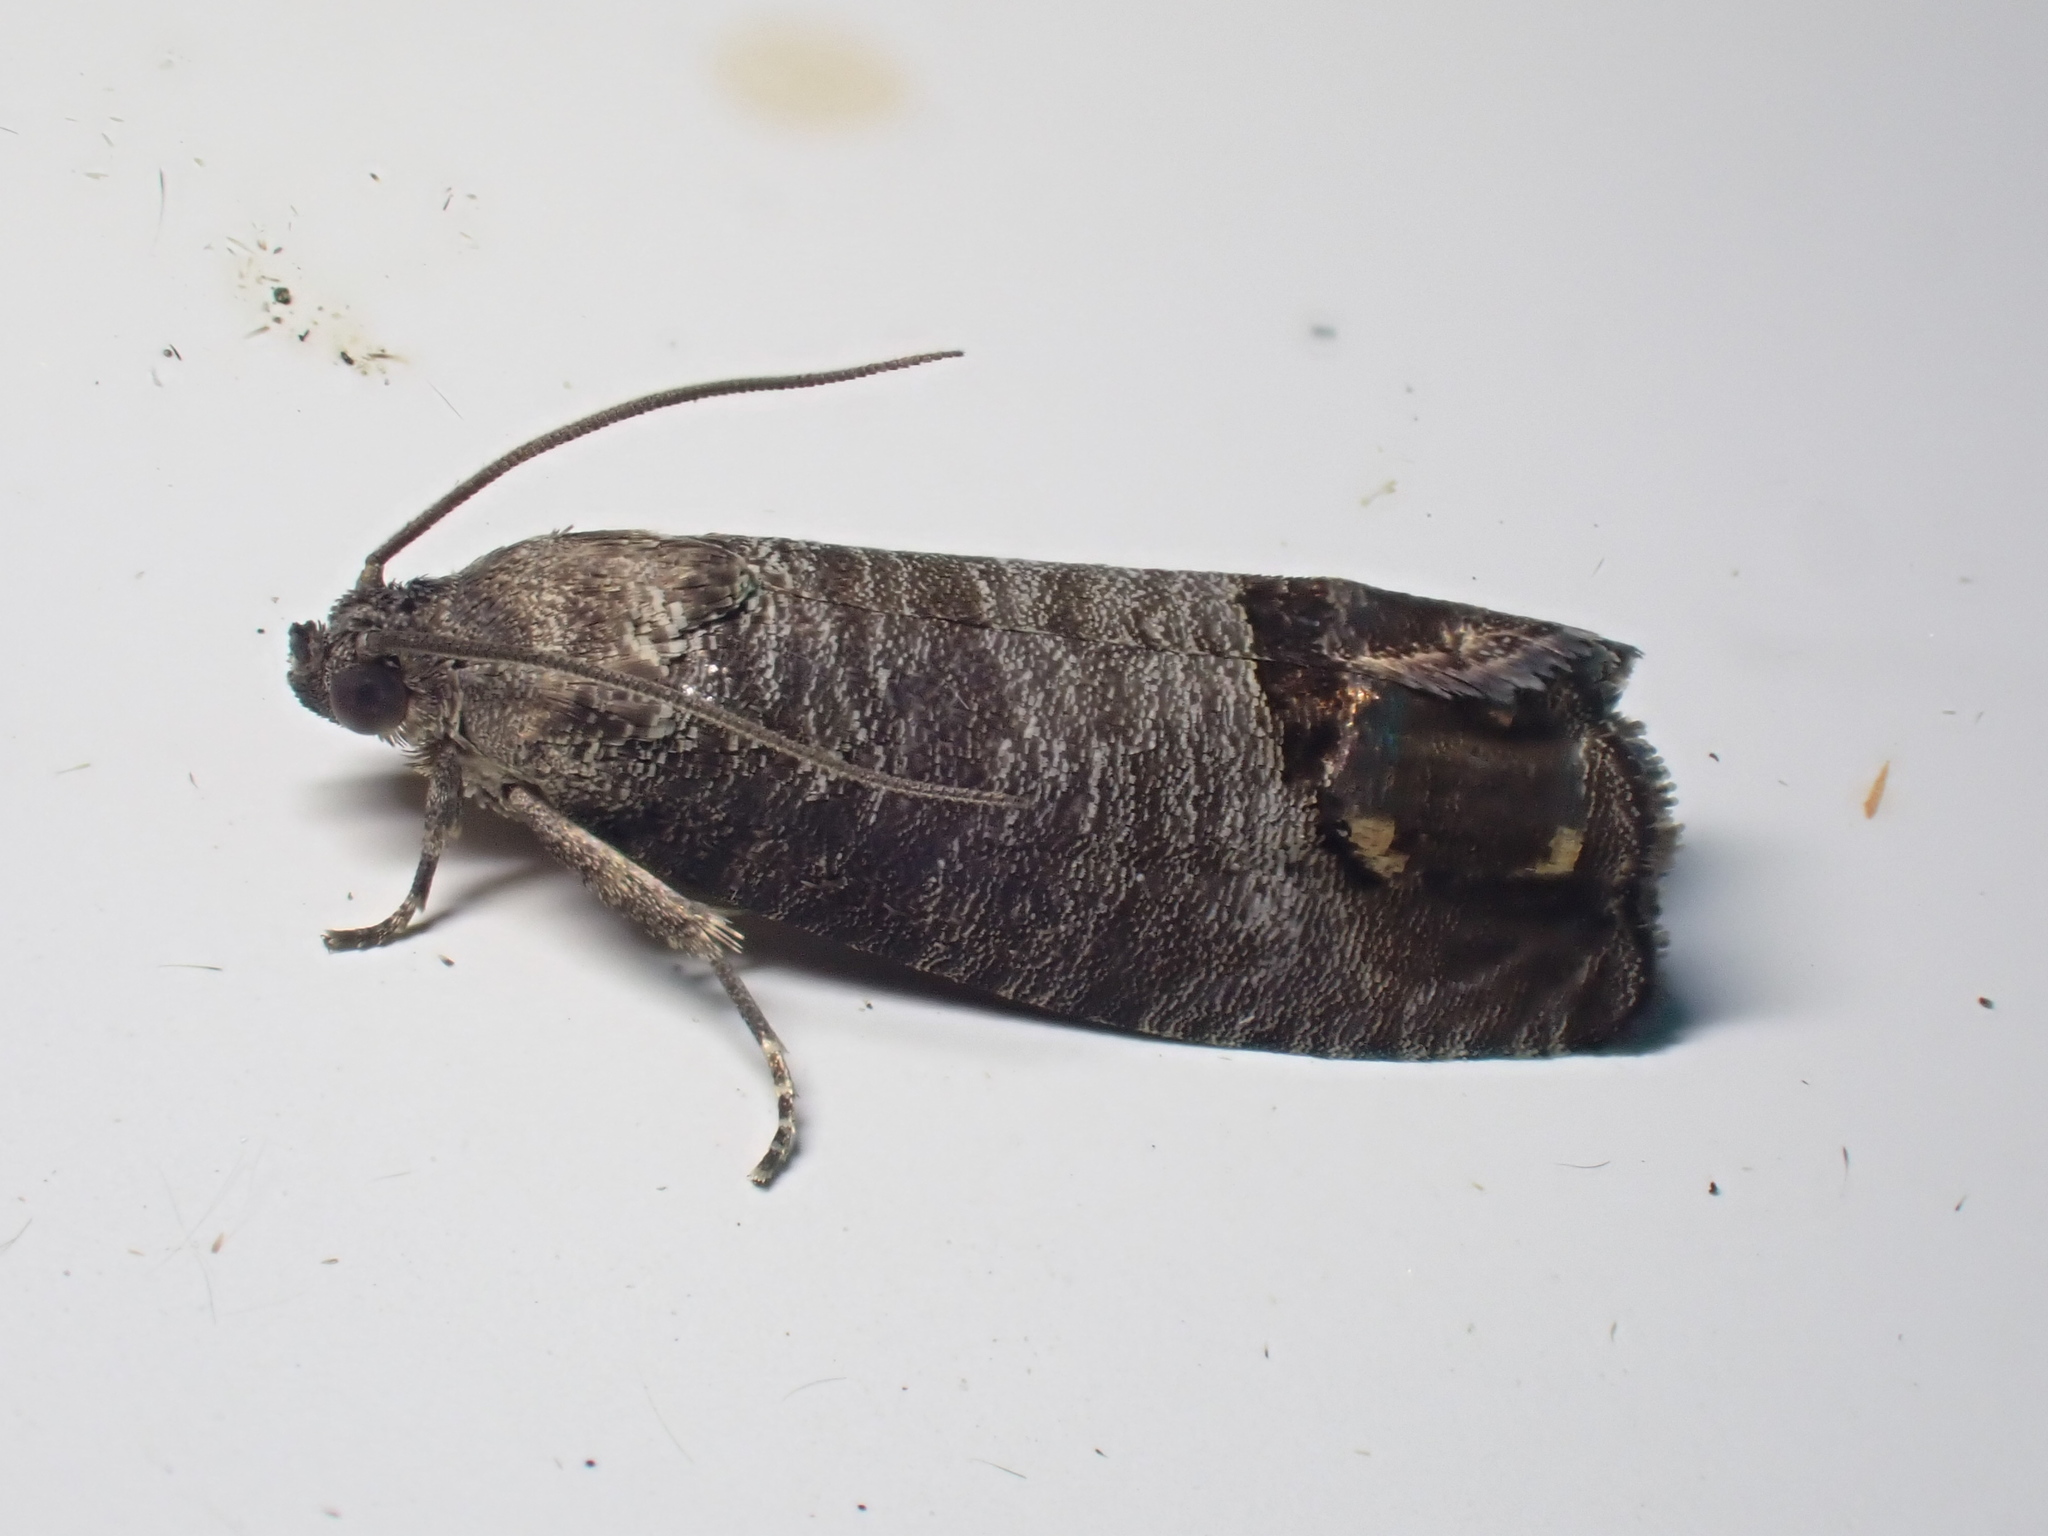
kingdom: Animalia
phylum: Arthropoda
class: Insecta
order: Lepidoptera
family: Tortricidae
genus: Cydia
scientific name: Cydia pomonella
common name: Codling moth
